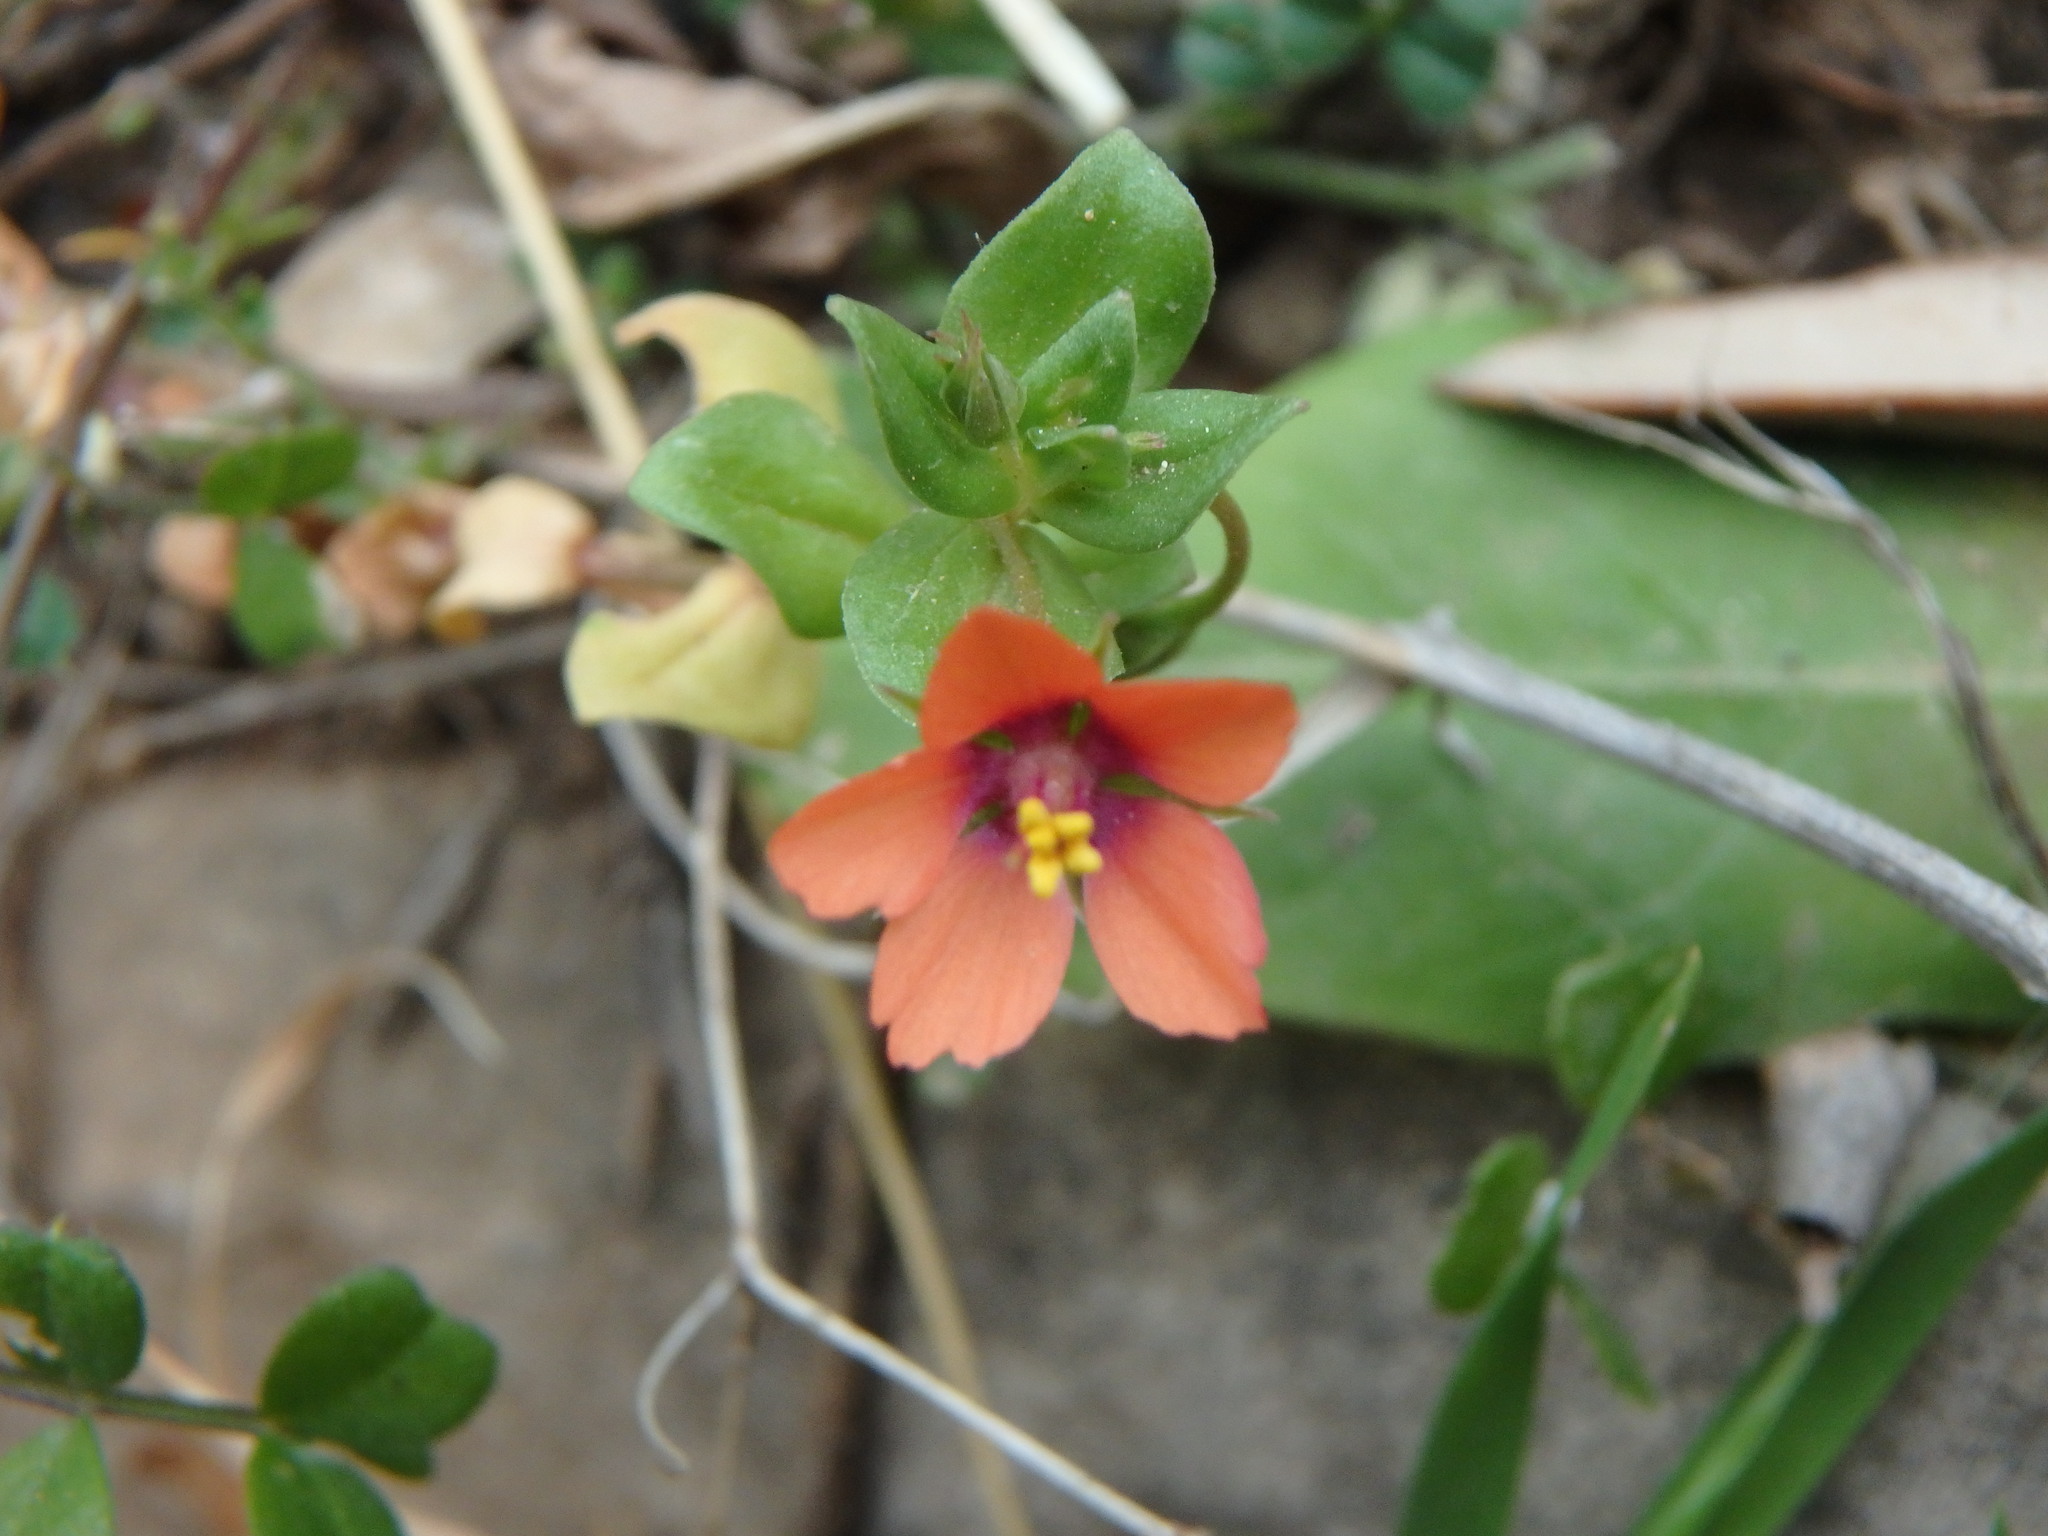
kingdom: Plantae
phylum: Tracheophyta
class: Magnoliopsida
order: Ericales
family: Primulaceae
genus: Lysimachia
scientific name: Lysimachia arvensis
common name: Scarlet pimpernel
